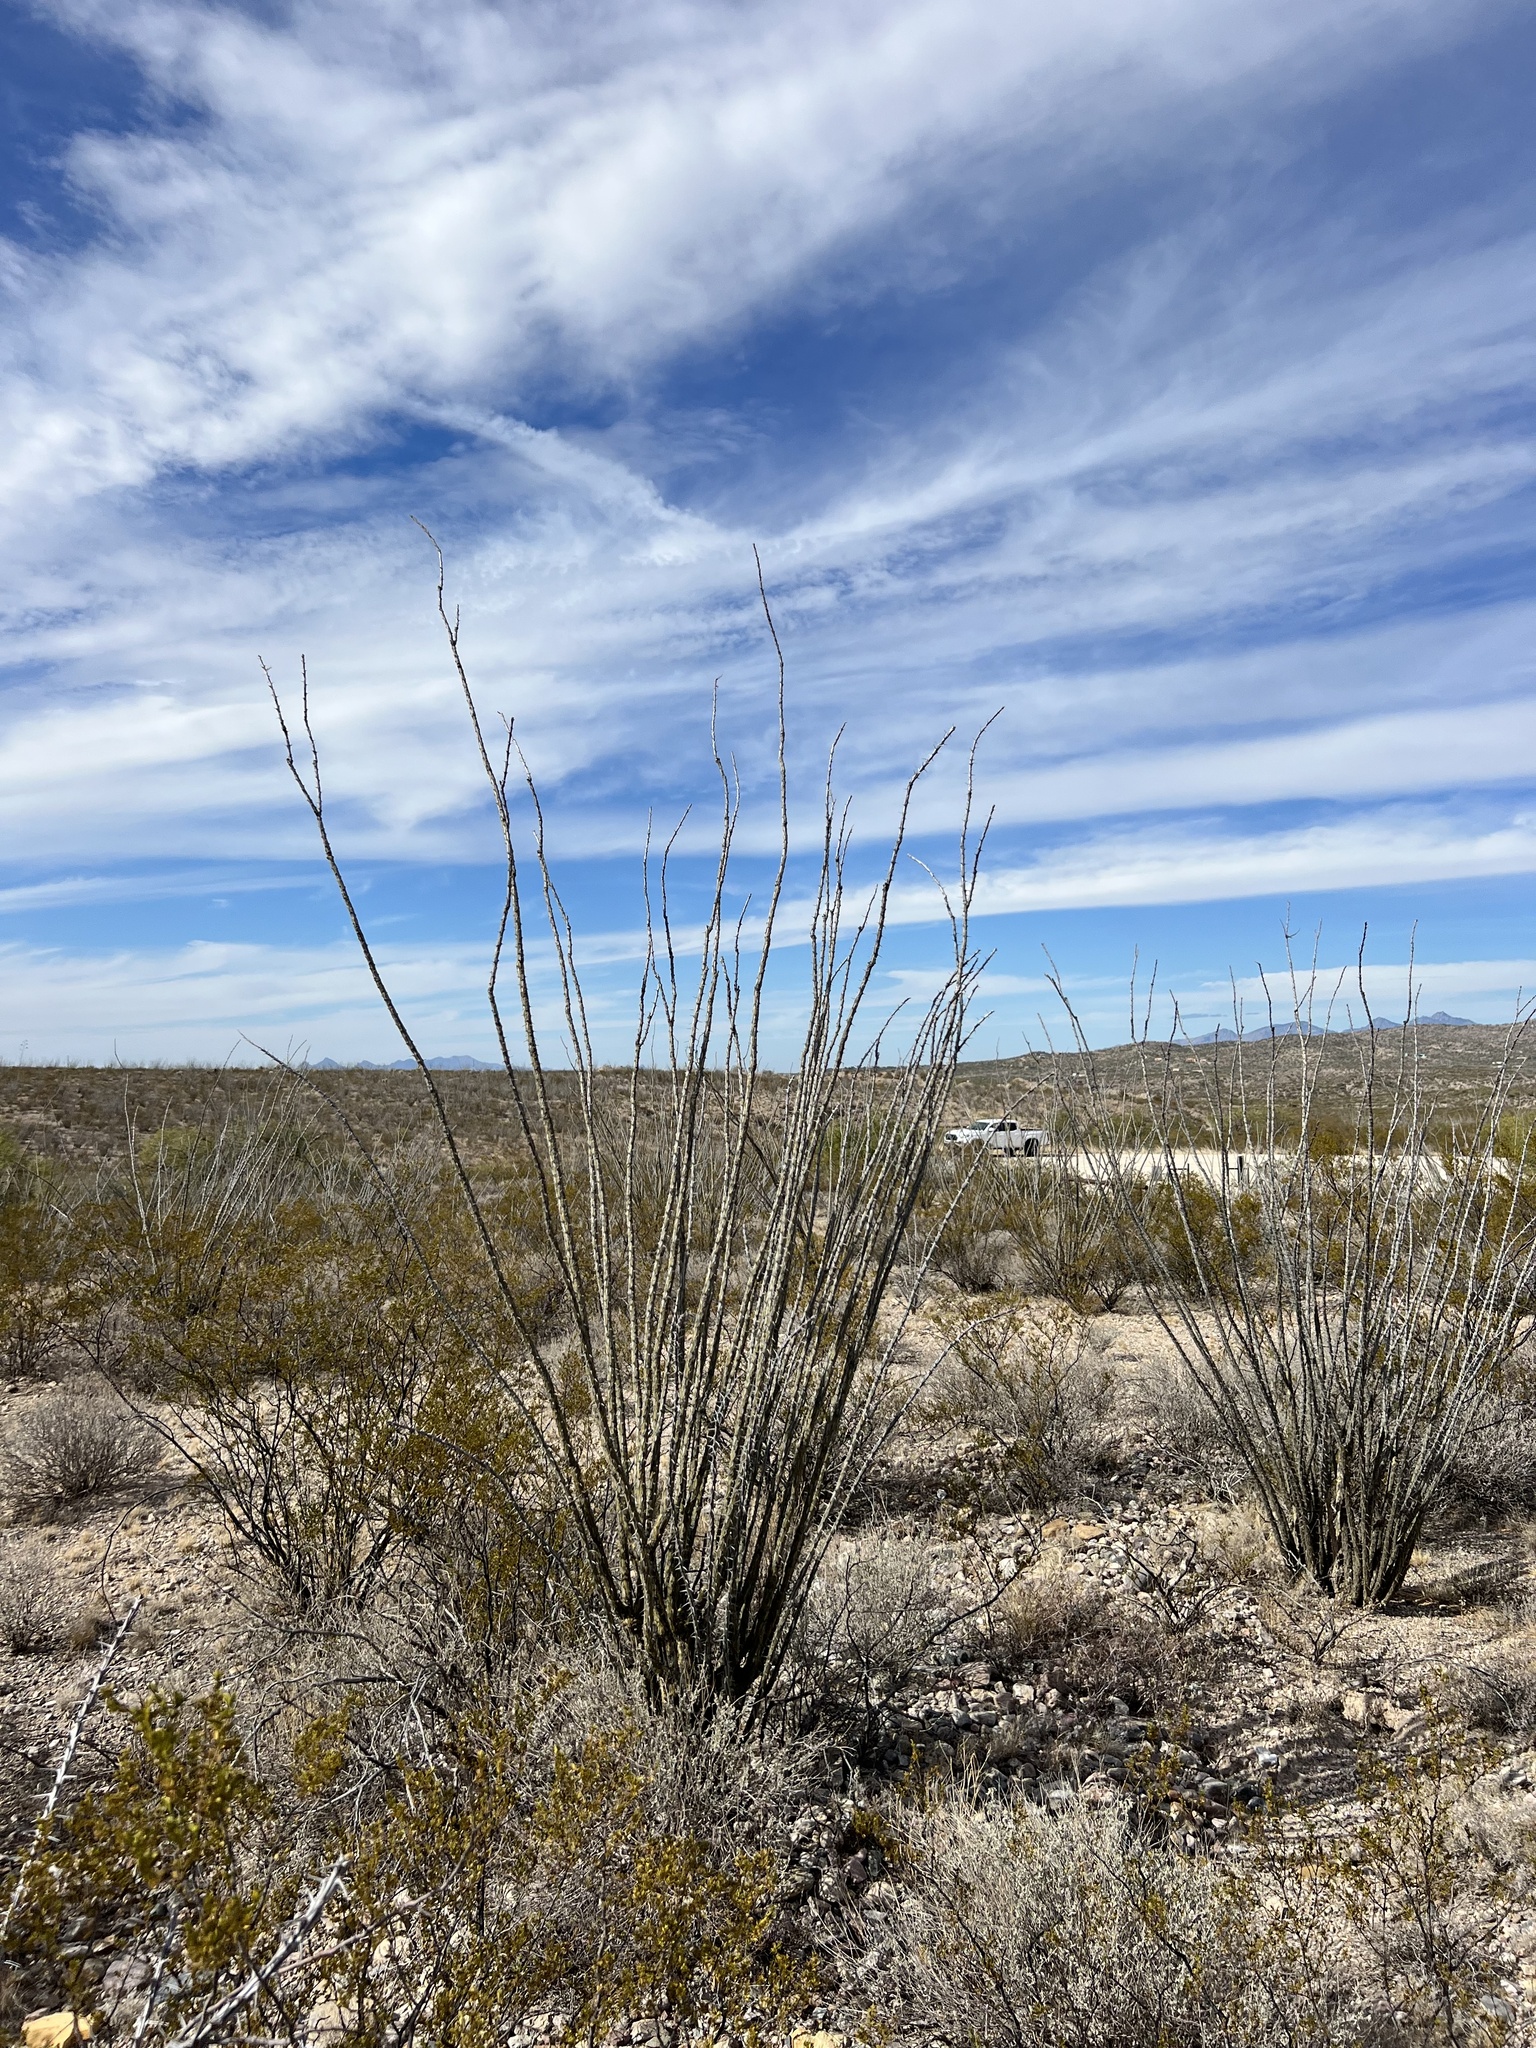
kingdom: Plantae
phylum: Tracheophyta
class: Magnoliopsida
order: Ericales
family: Fouquieriaceae
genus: Fouquieria
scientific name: Fouquieria splendens
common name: Vine-cactus
